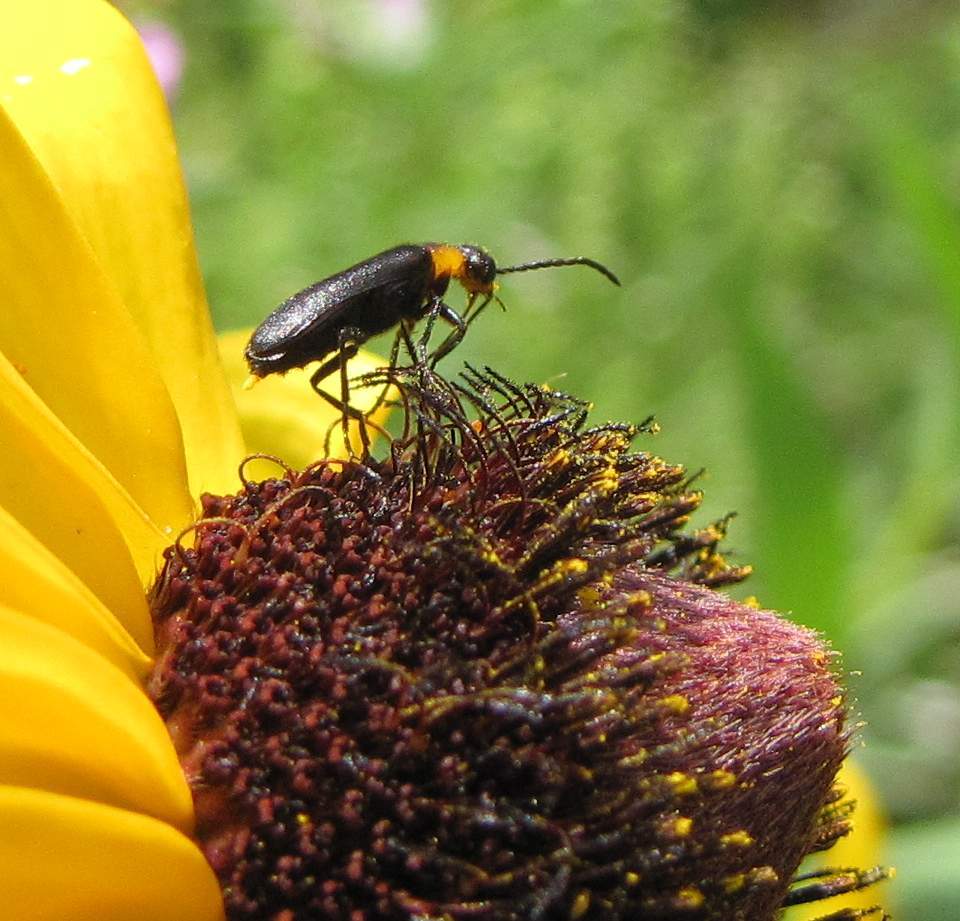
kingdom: Animalia
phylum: Arthropoda
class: Insecta
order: Coleoptera
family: Meloidae
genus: Nemognatha
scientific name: Nemognatha nemorensis
